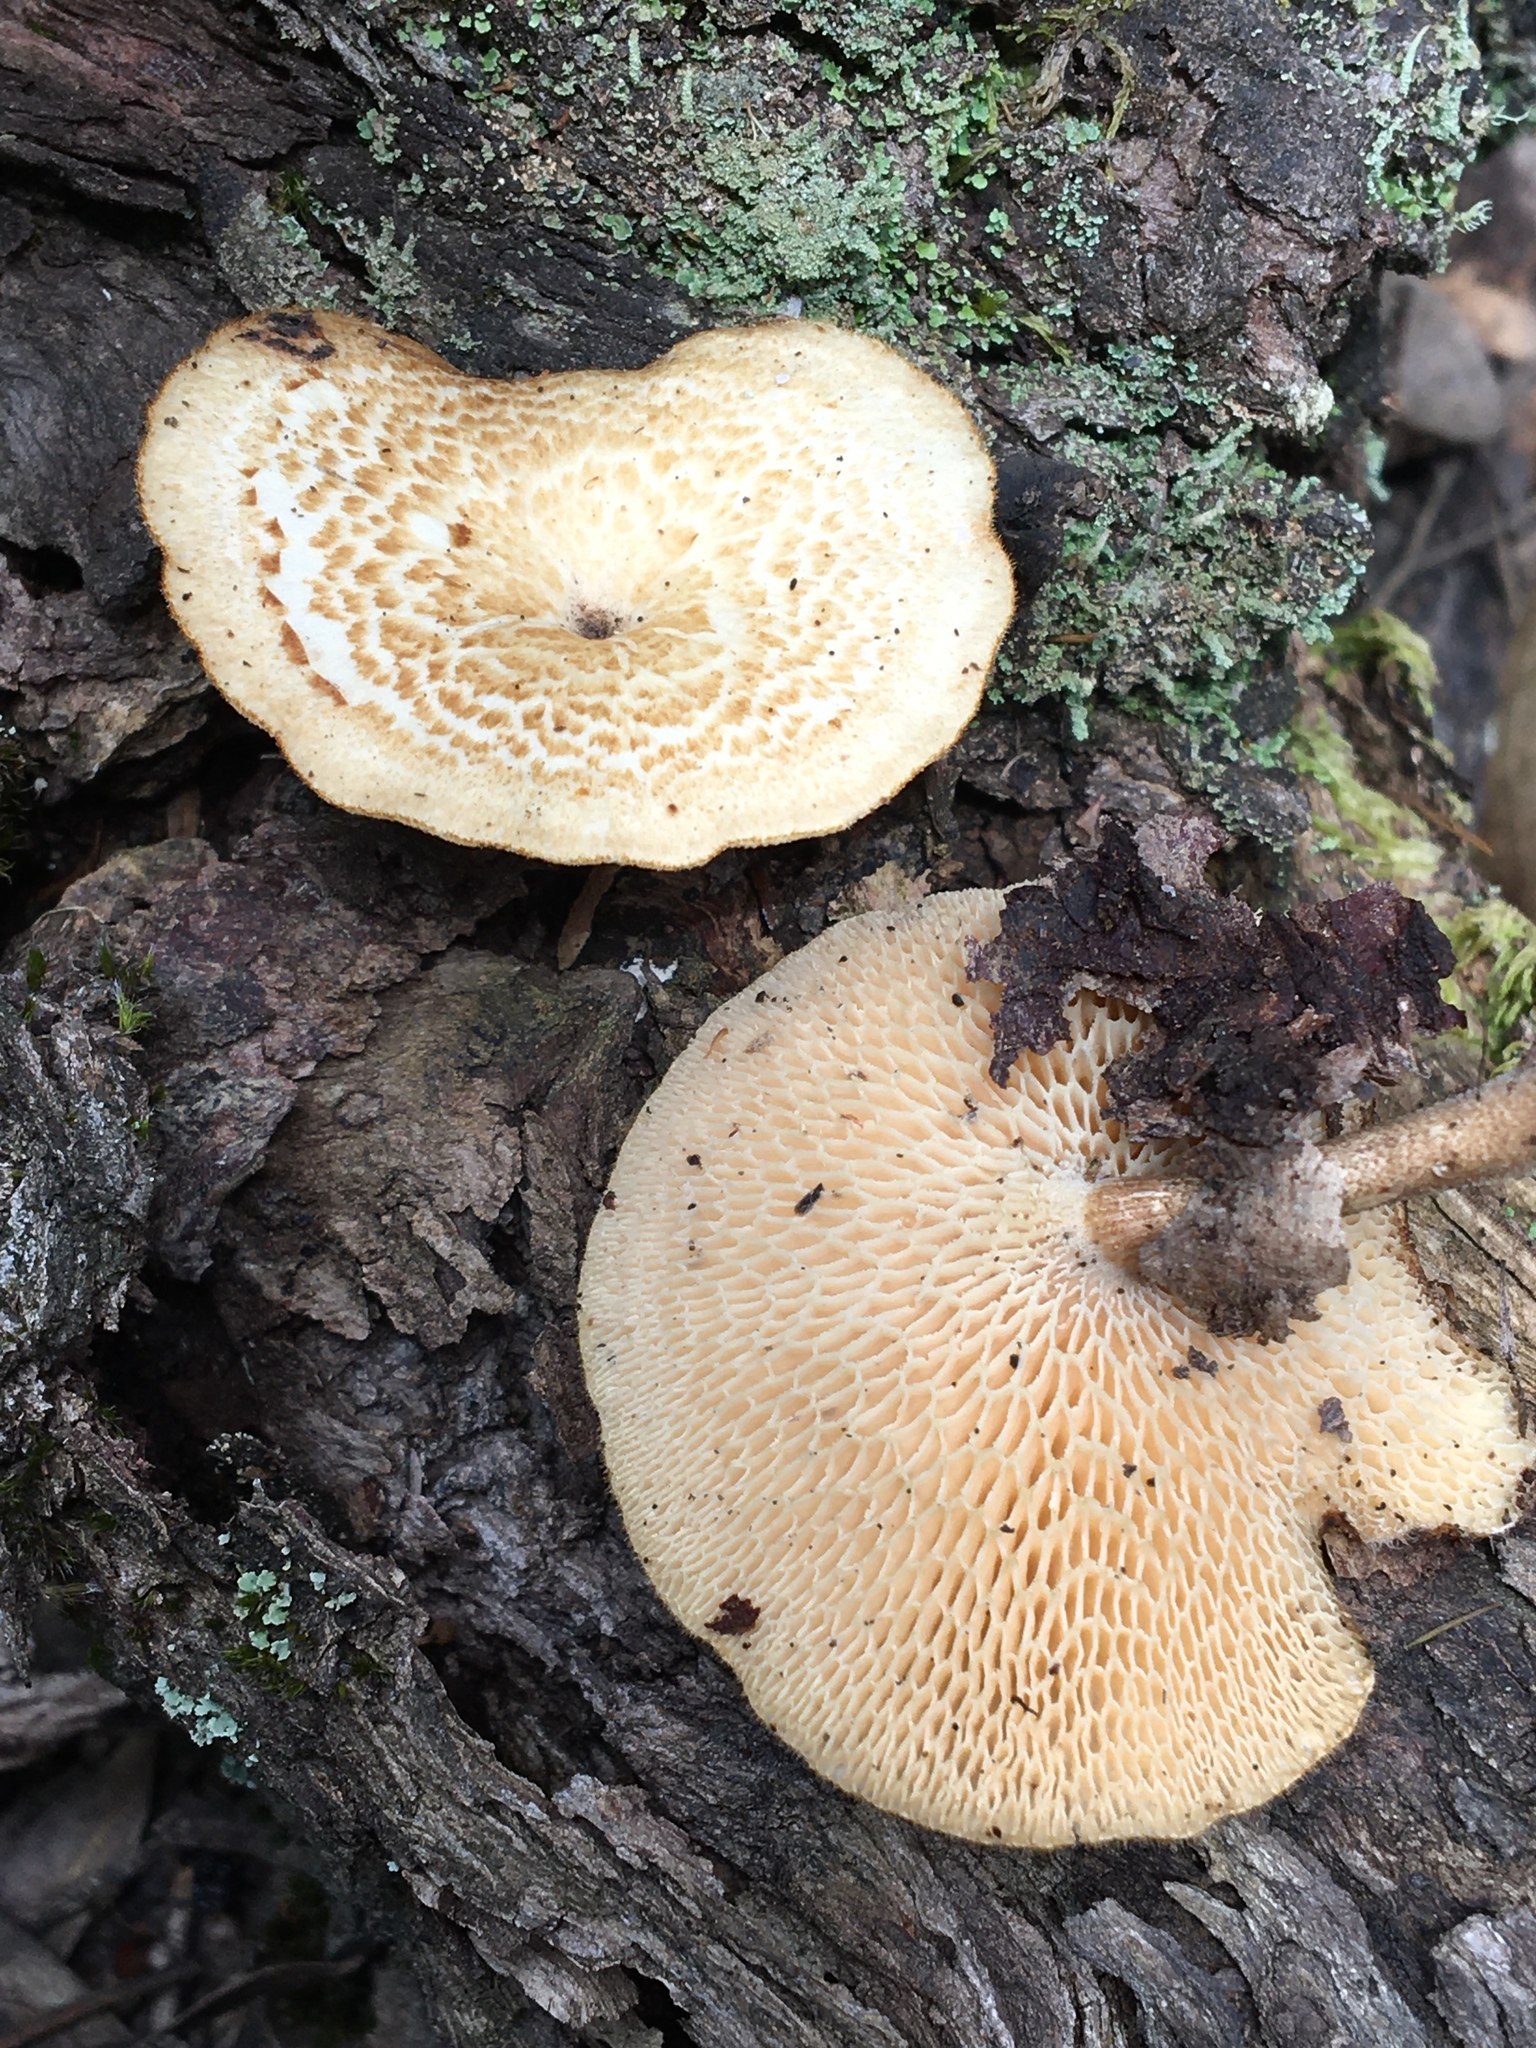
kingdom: Fungi
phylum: Basidiomycota
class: Agaricomycetes
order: Polyporales
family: Polyporaceae
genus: Lentinus
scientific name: Lentinus arcularius
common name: Spring polypore
